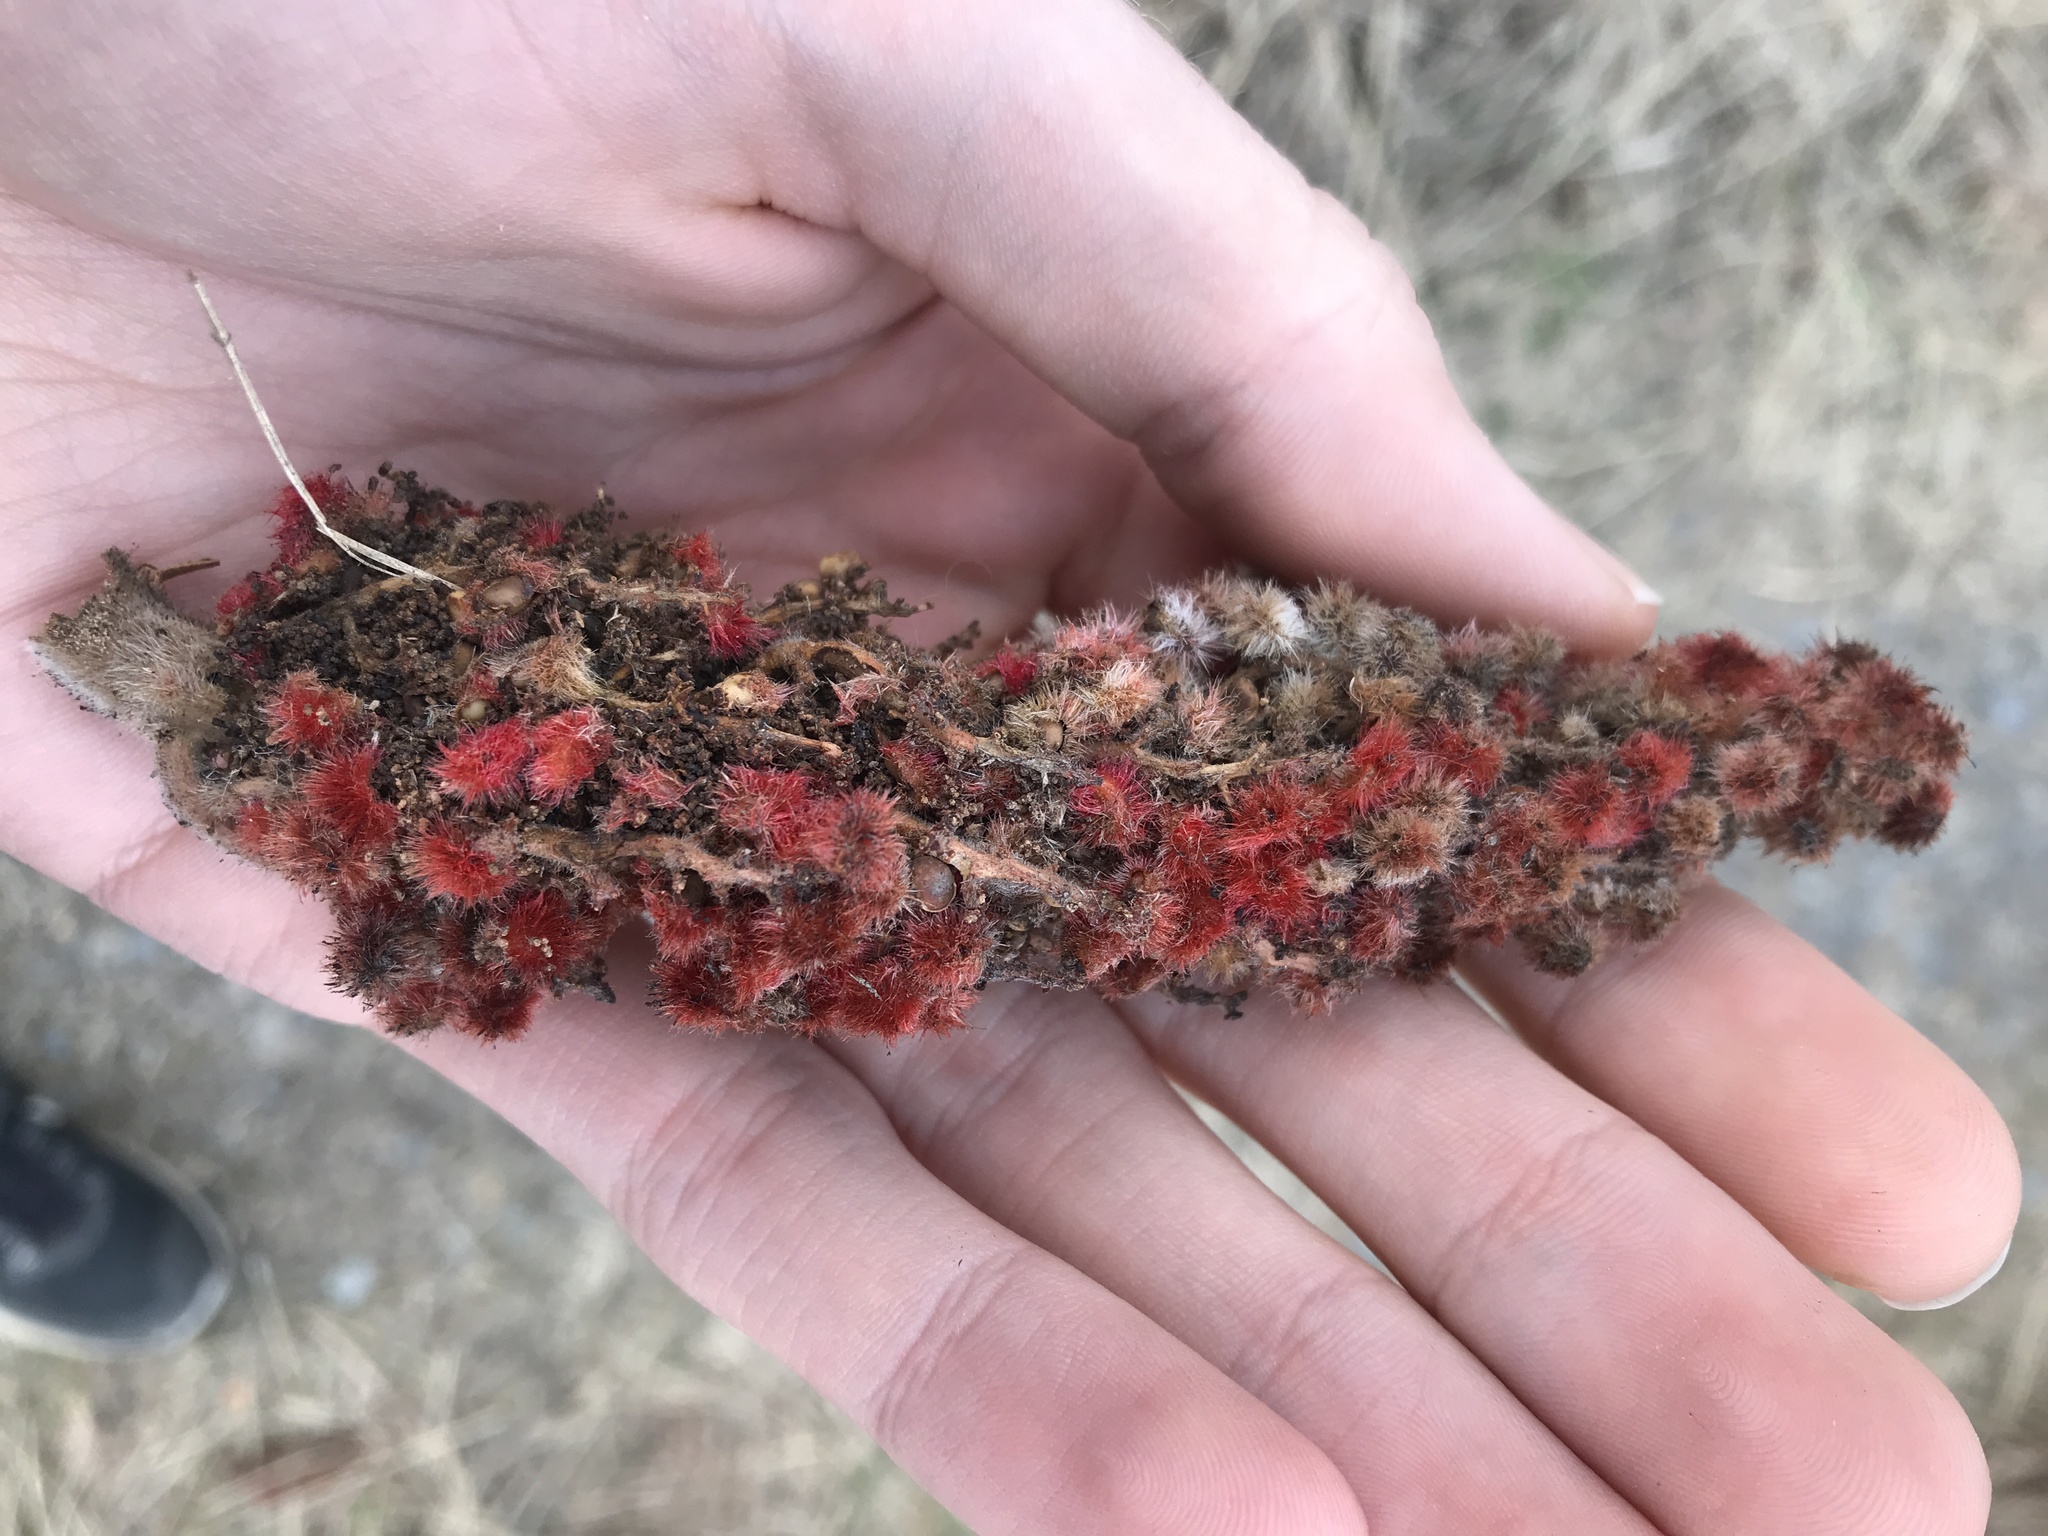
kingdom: Plantae
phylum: Tracheophyta
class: Magnoliopsida
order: Sapindales
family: Anacardiaceae
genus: Rhus
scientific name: Rhus typhina
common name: Staghorn sumac
